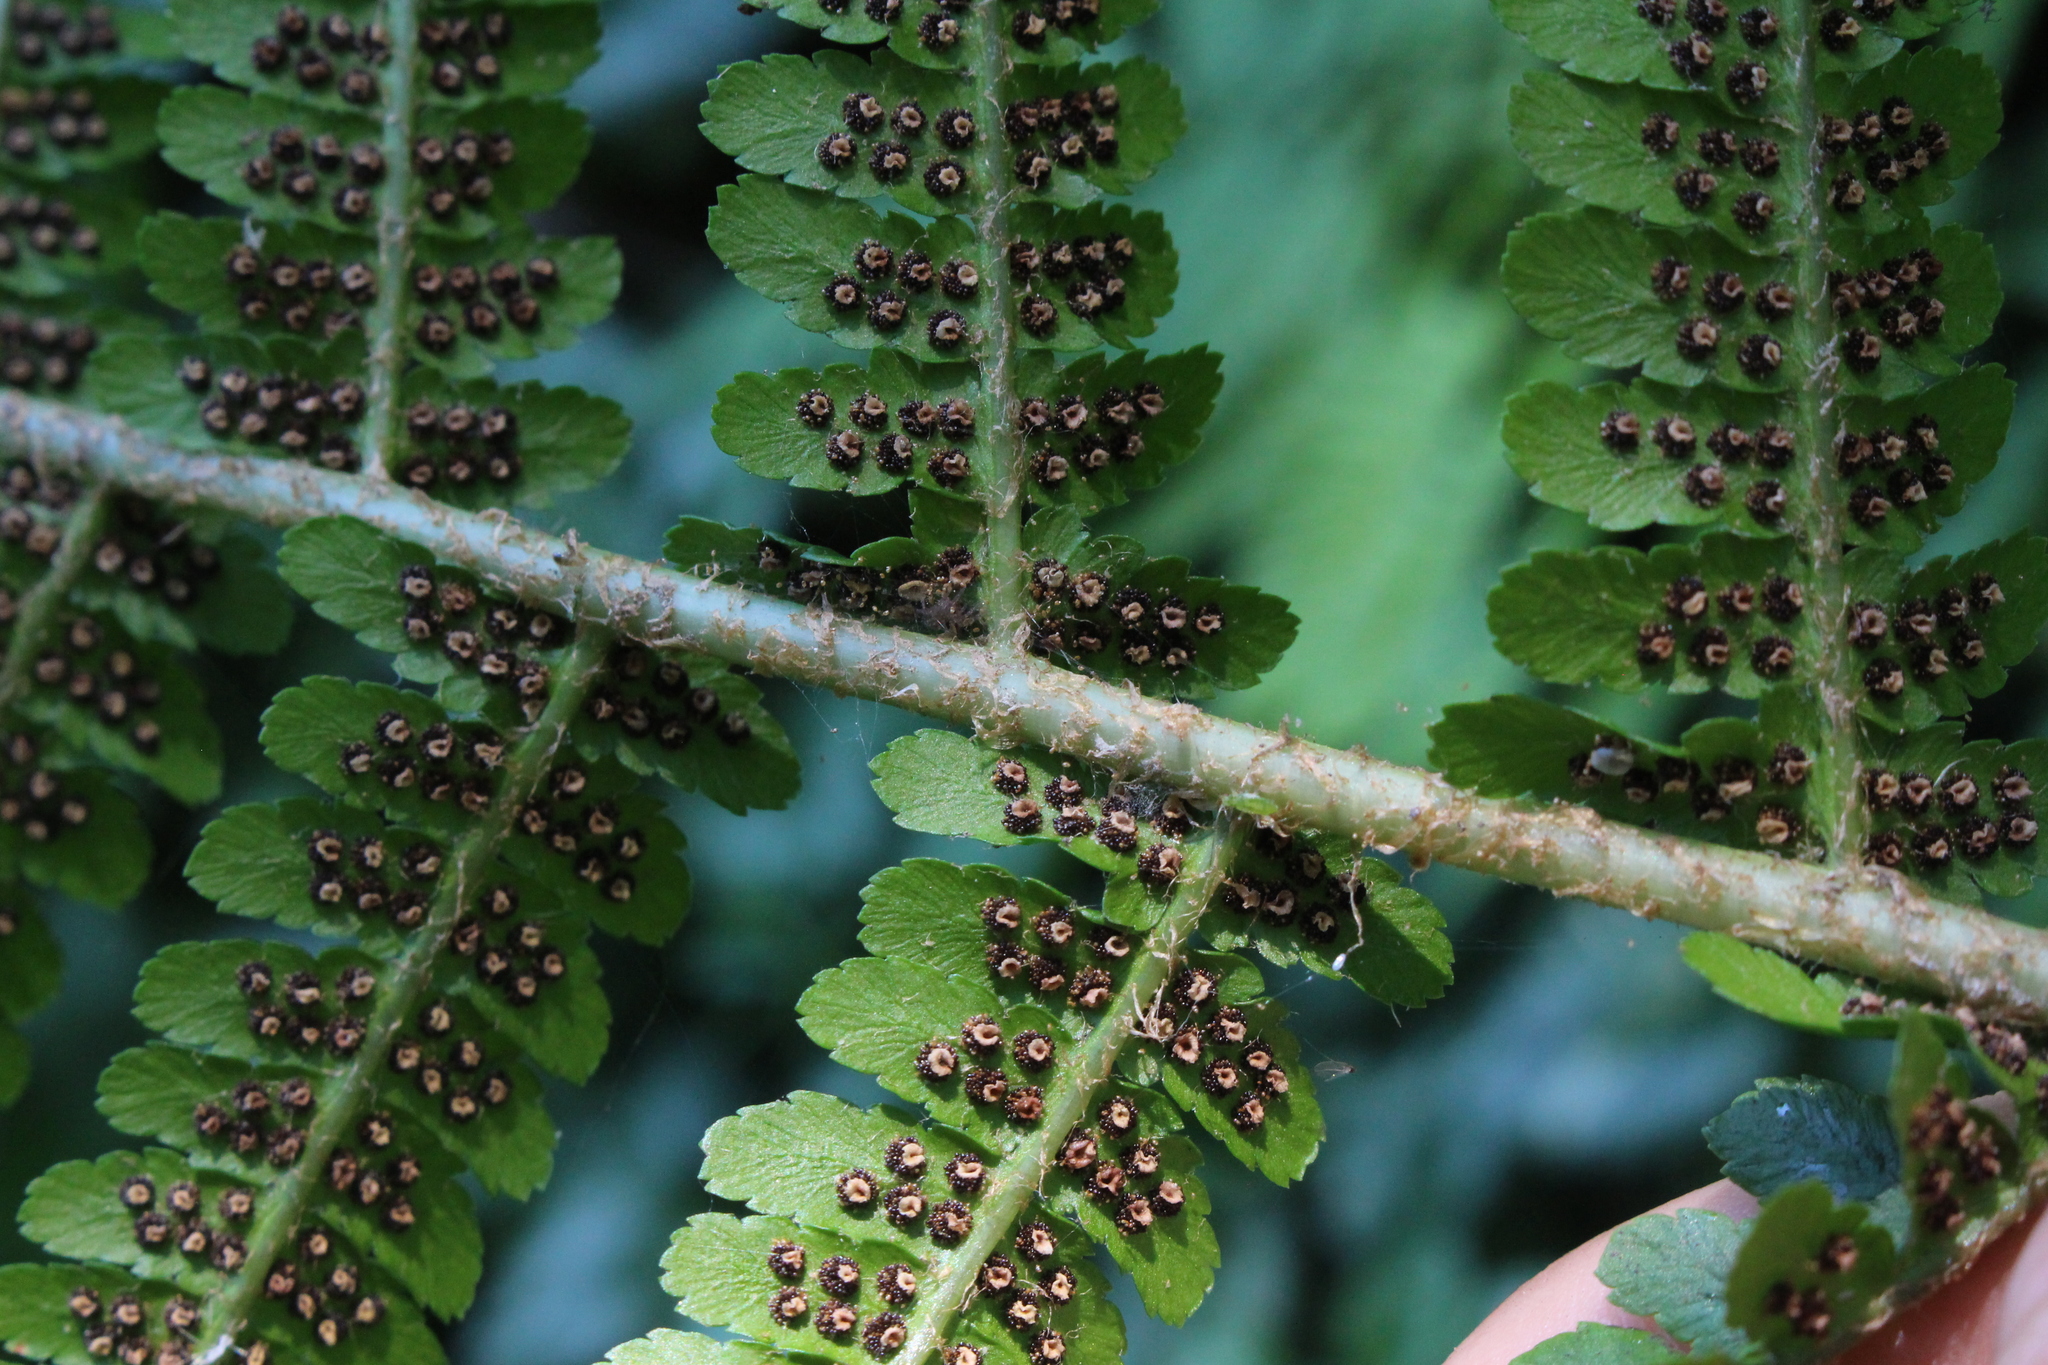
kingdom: Plantae
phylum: Tracheophyta
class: Polypodiopsida
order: Polypodiales
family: Dryopteridaceae
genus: Dryopteris
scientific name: Dryopteris filix-mas
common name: Male fern
